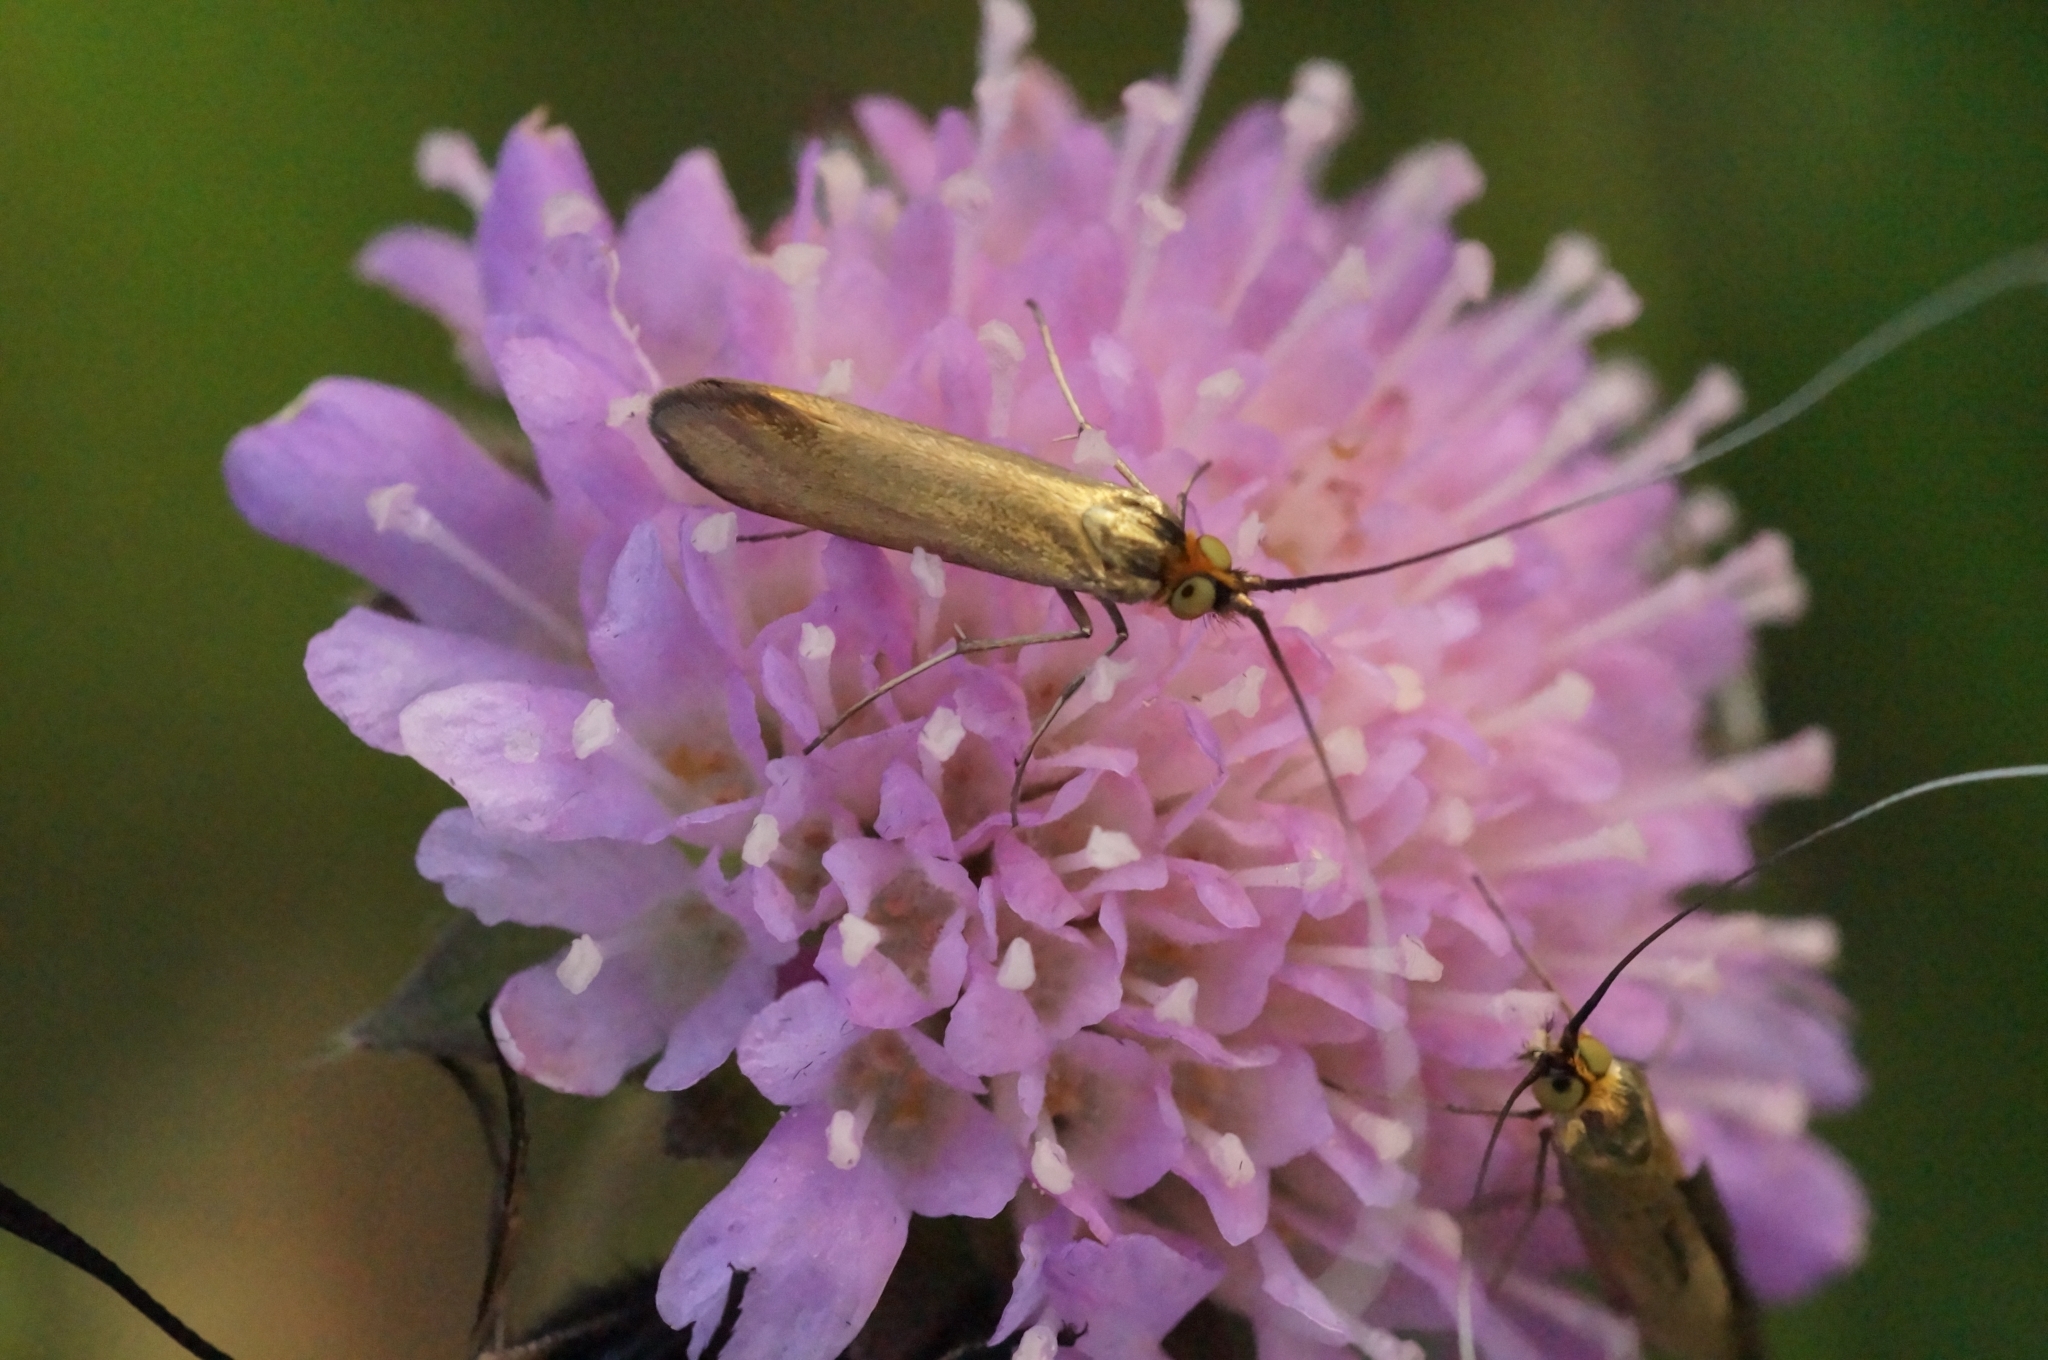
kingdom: Animalia
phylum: Arthropoda
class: Insecta
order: Lepidoptera
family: Adelidae
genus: Nemophora
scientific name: Nemophora metallica
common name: Brassy long-horn
